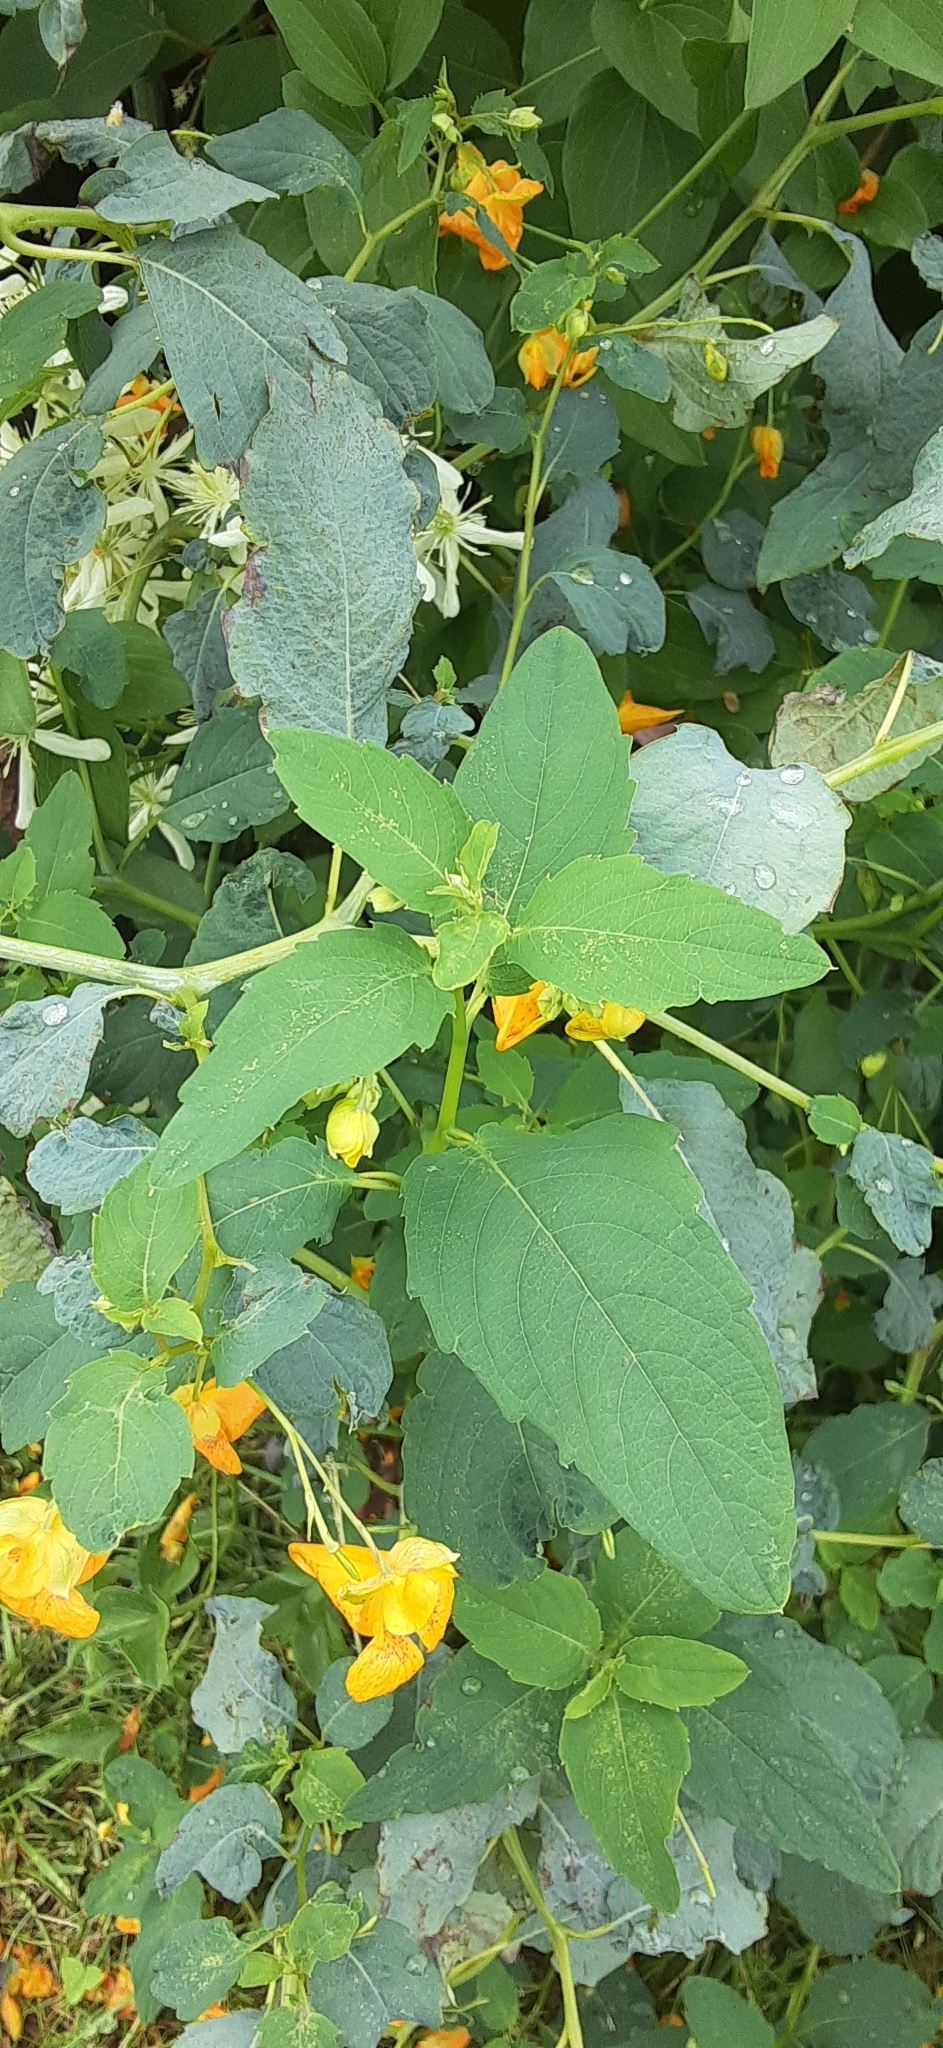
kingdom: Plantae
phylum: Tracheophyta
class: Magnoliopsida
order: Ericales
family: Balsaminaceae
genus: Impatiens
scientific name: Impatiens capensis
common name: Orange balsam
